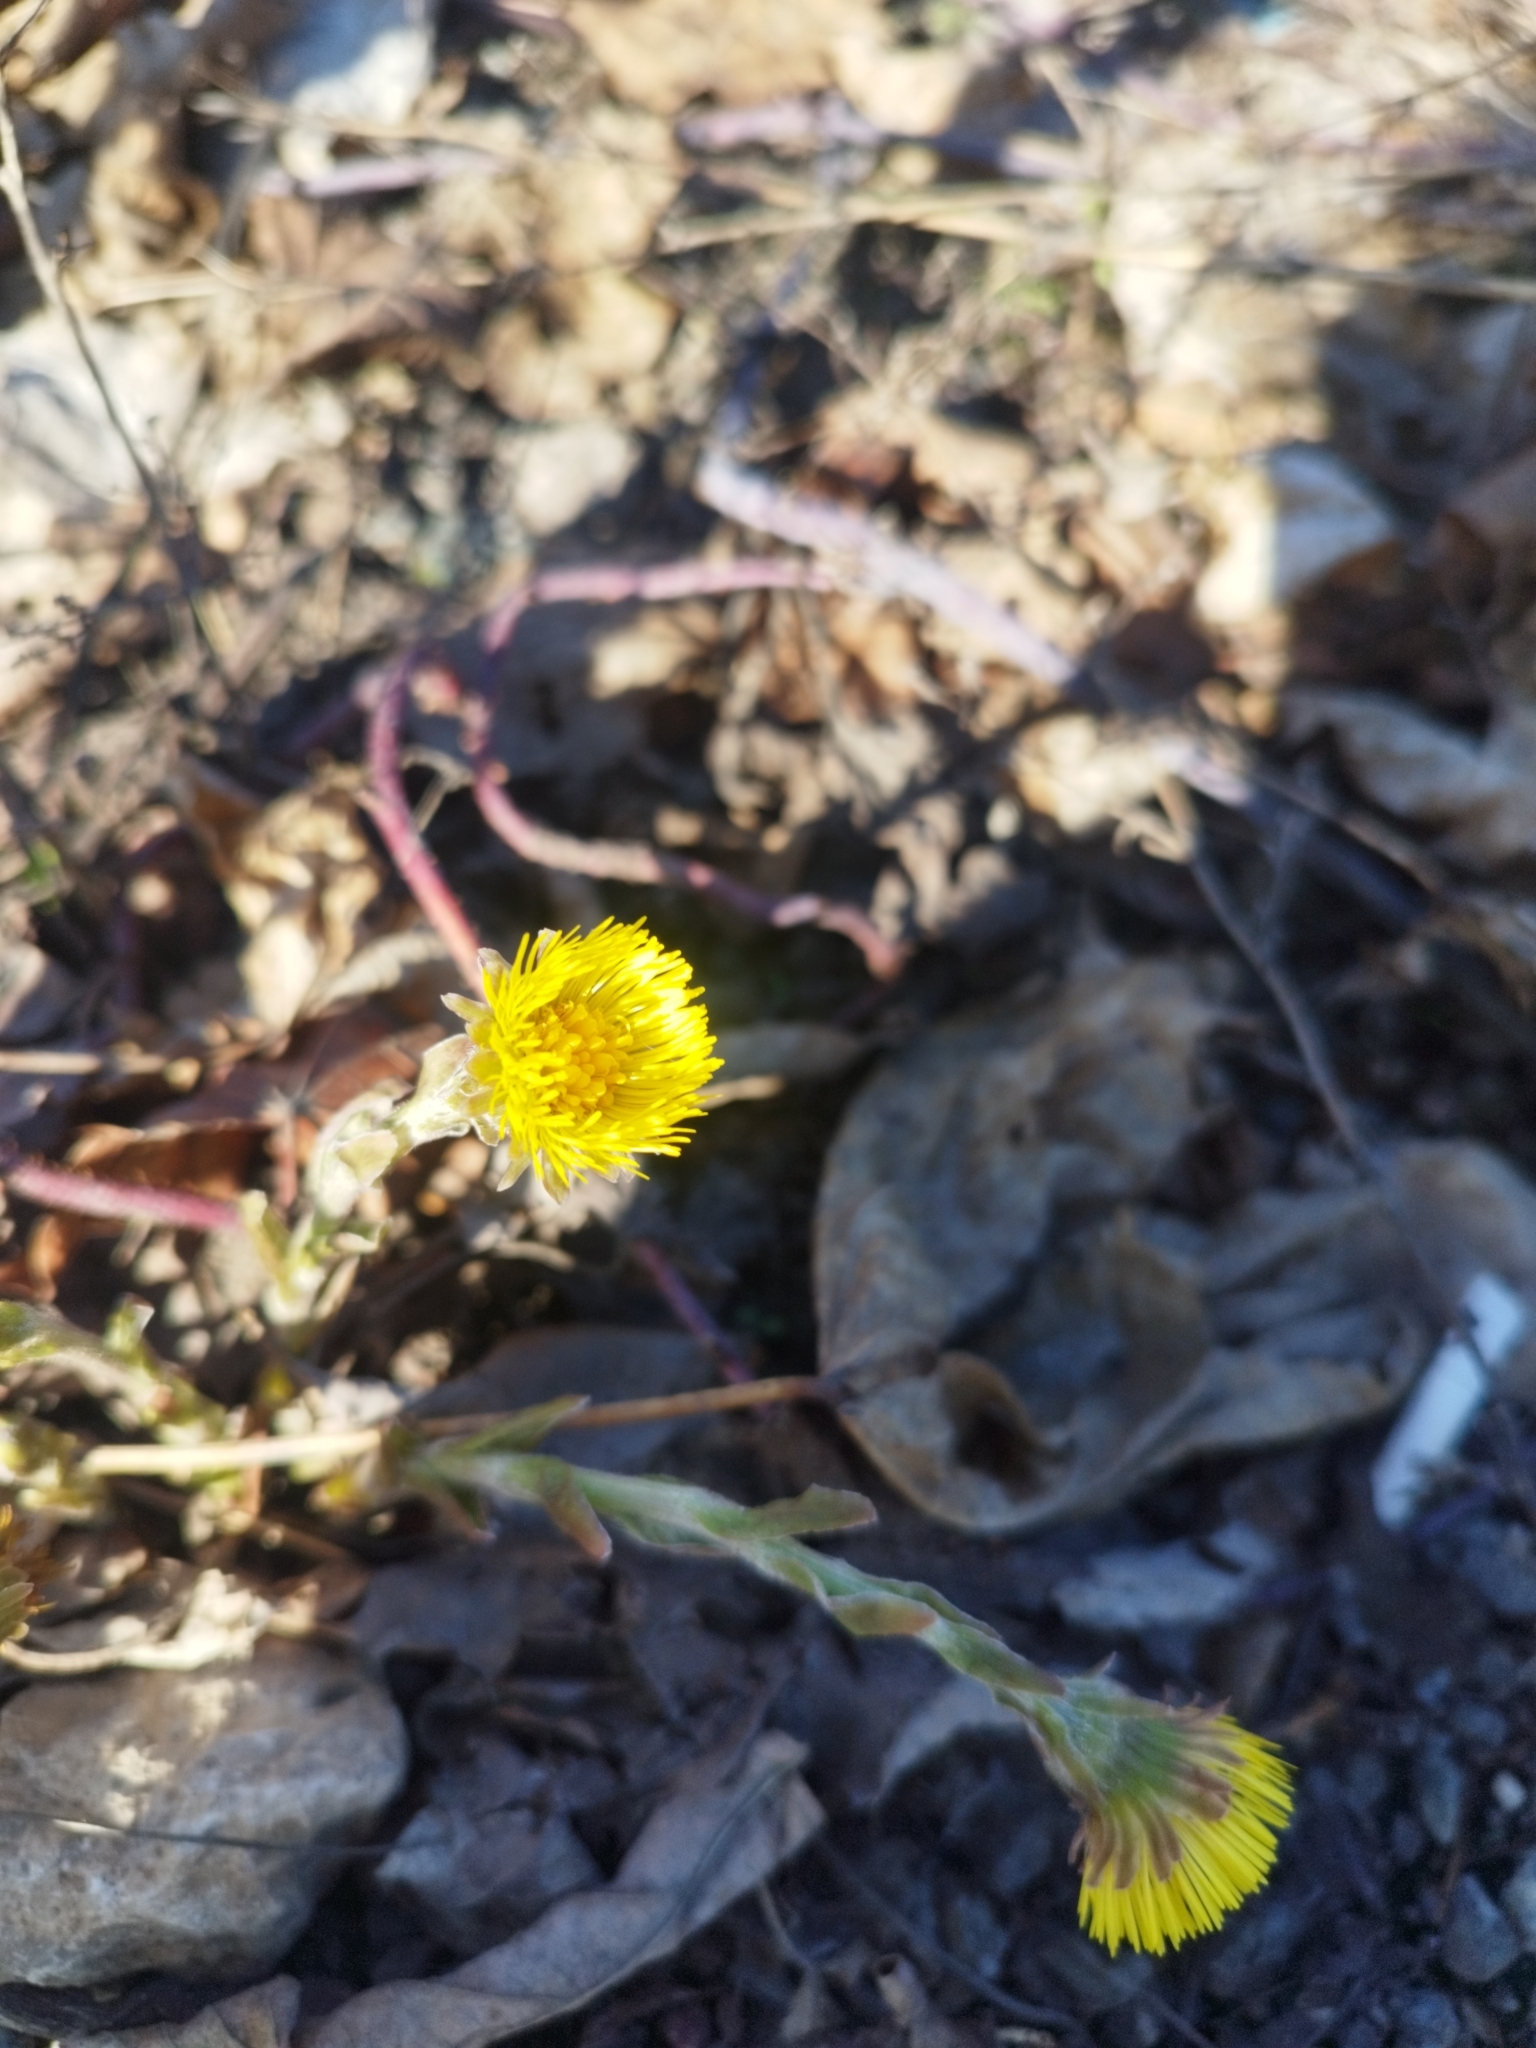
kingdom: Plantae
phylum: Tracheophyta
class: Magnoliopsida
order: Asterales
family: Asteraceae
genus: Tussilago
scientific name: Tussilago farfara
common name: Coltsfoot
